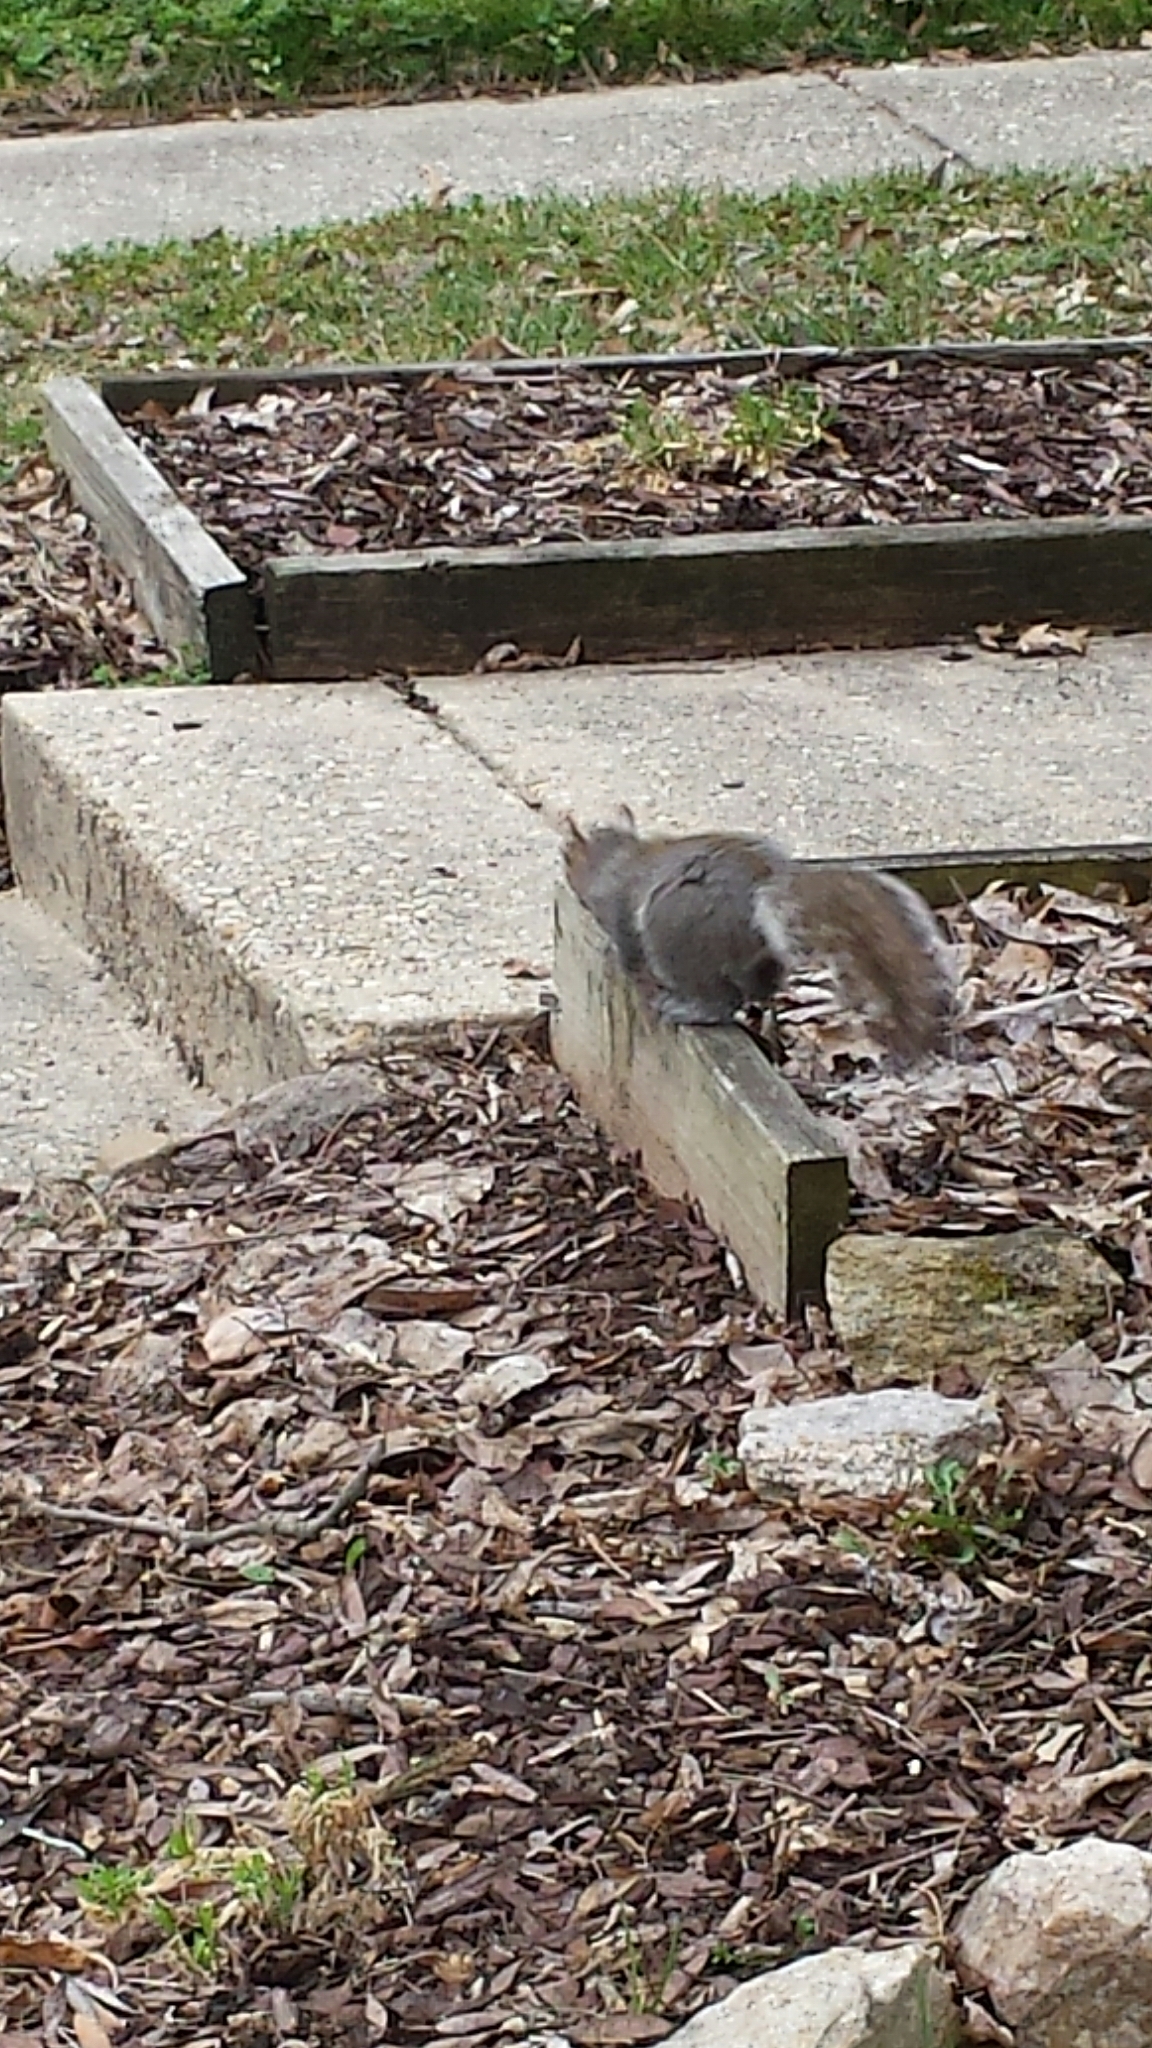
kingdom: Animalia
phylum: Chordata
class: Mammalia
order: Rodentia
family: Sciuridae
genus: Sciurus
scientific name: Sciurus carolinensis
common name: Eastern gray squirrel
